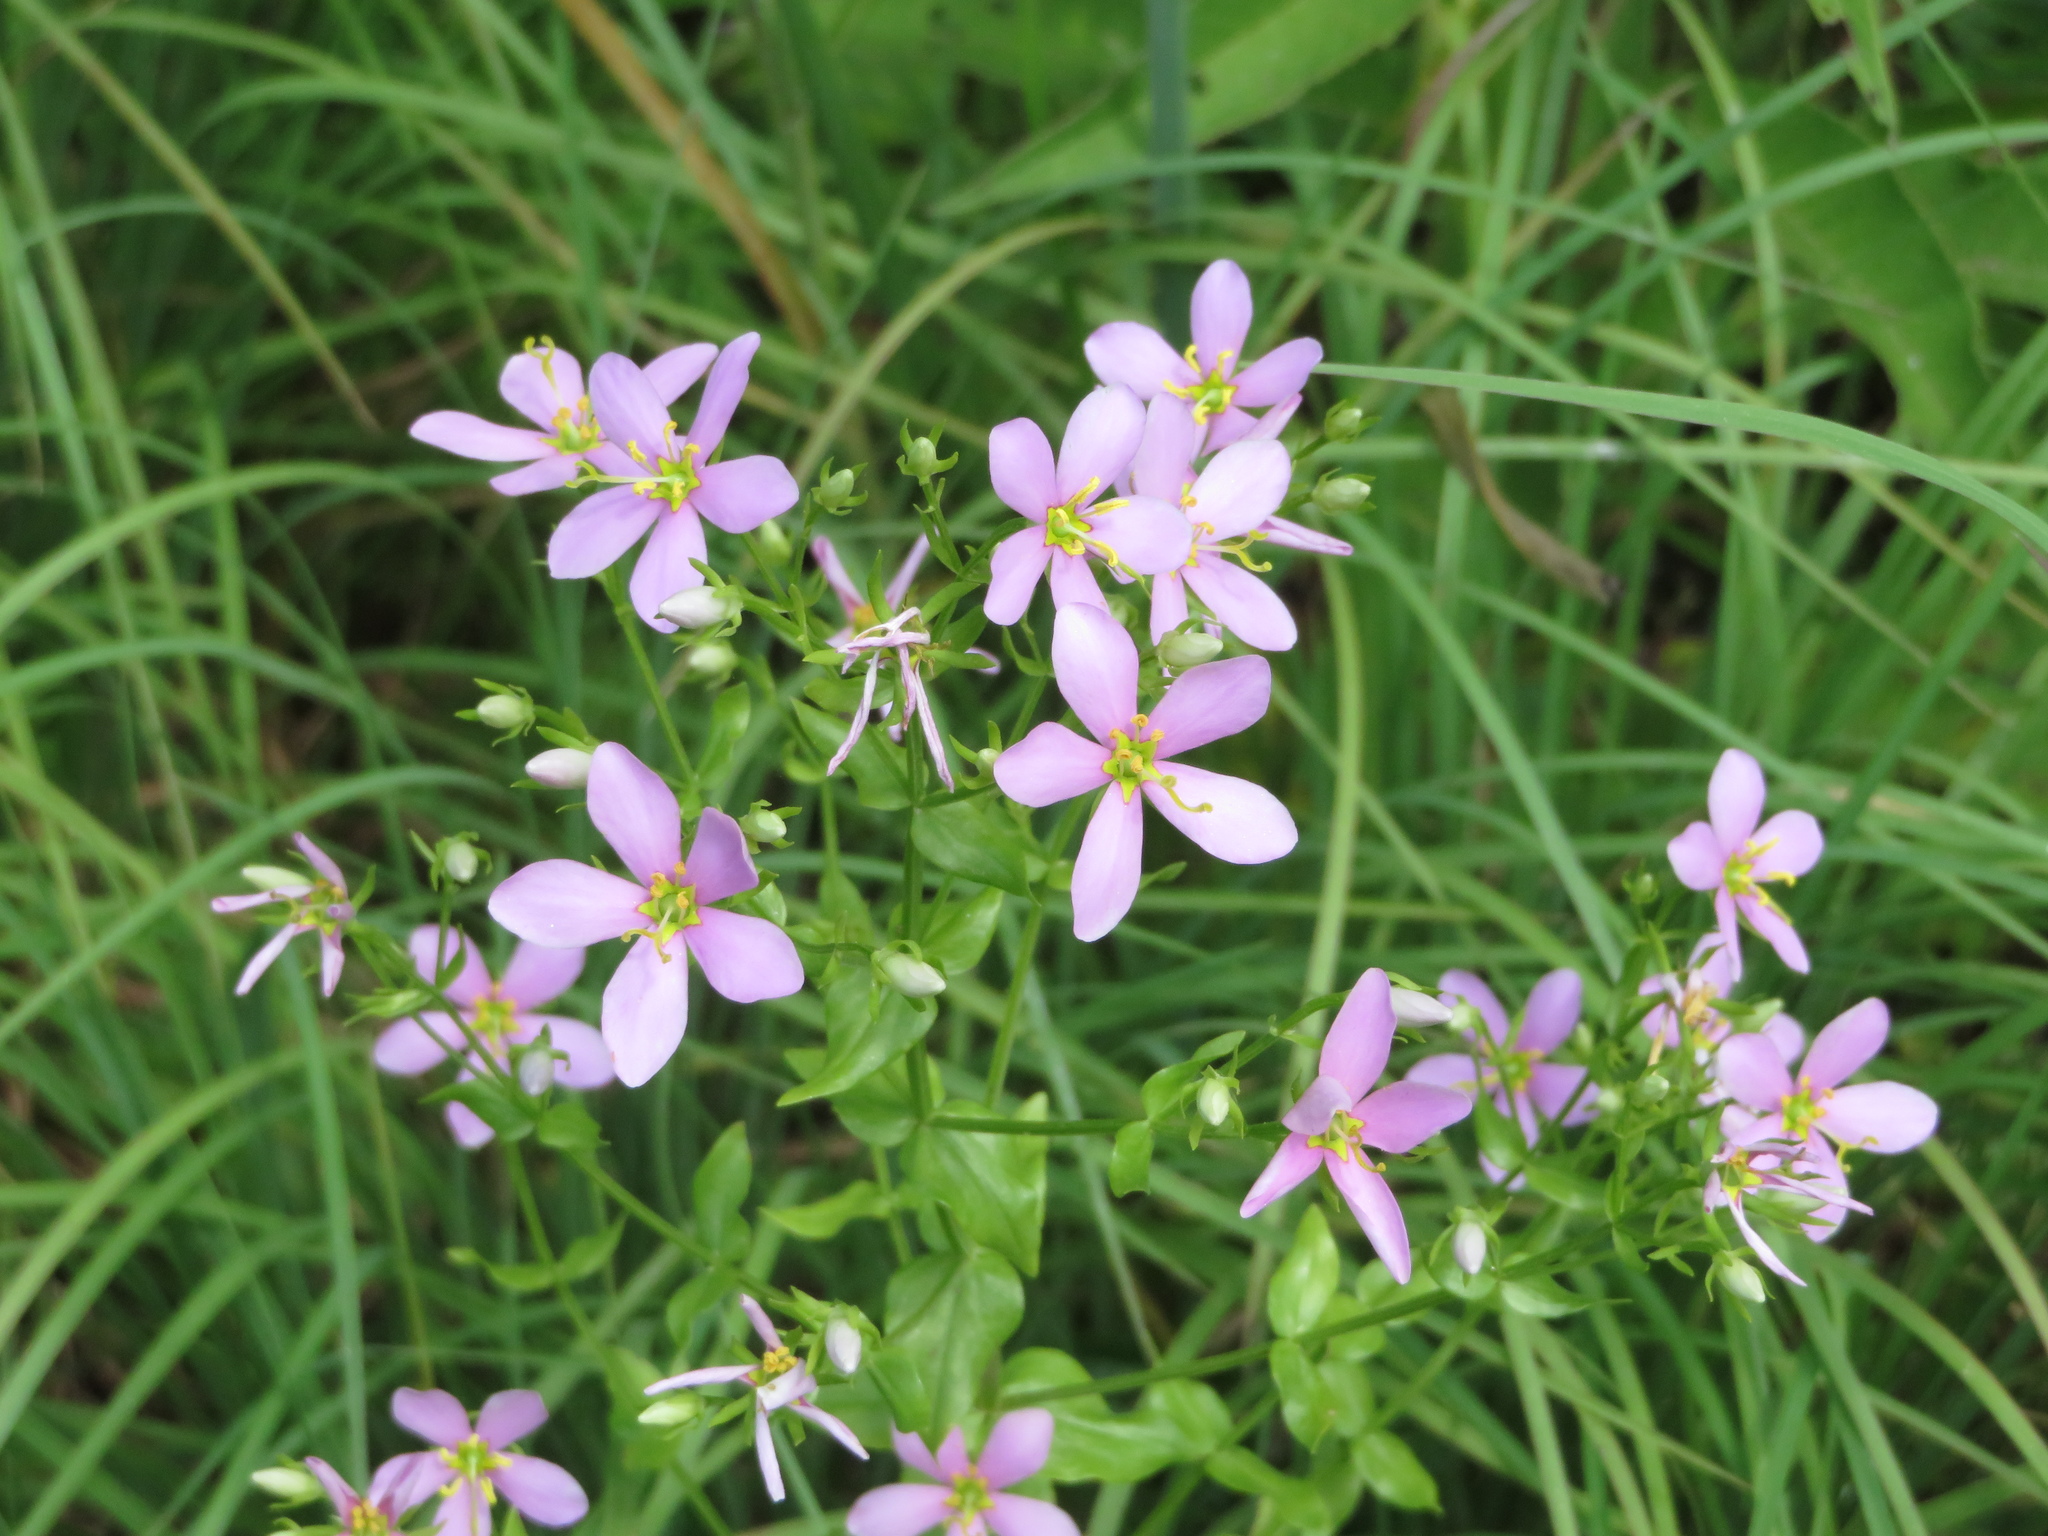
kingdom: Plantae
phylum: Tracheophyta
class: Magnoliopsida
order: Gentianales
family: Gentianaceae
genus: Sabatia
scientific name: Sabatia angularis
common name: Rose-pink
